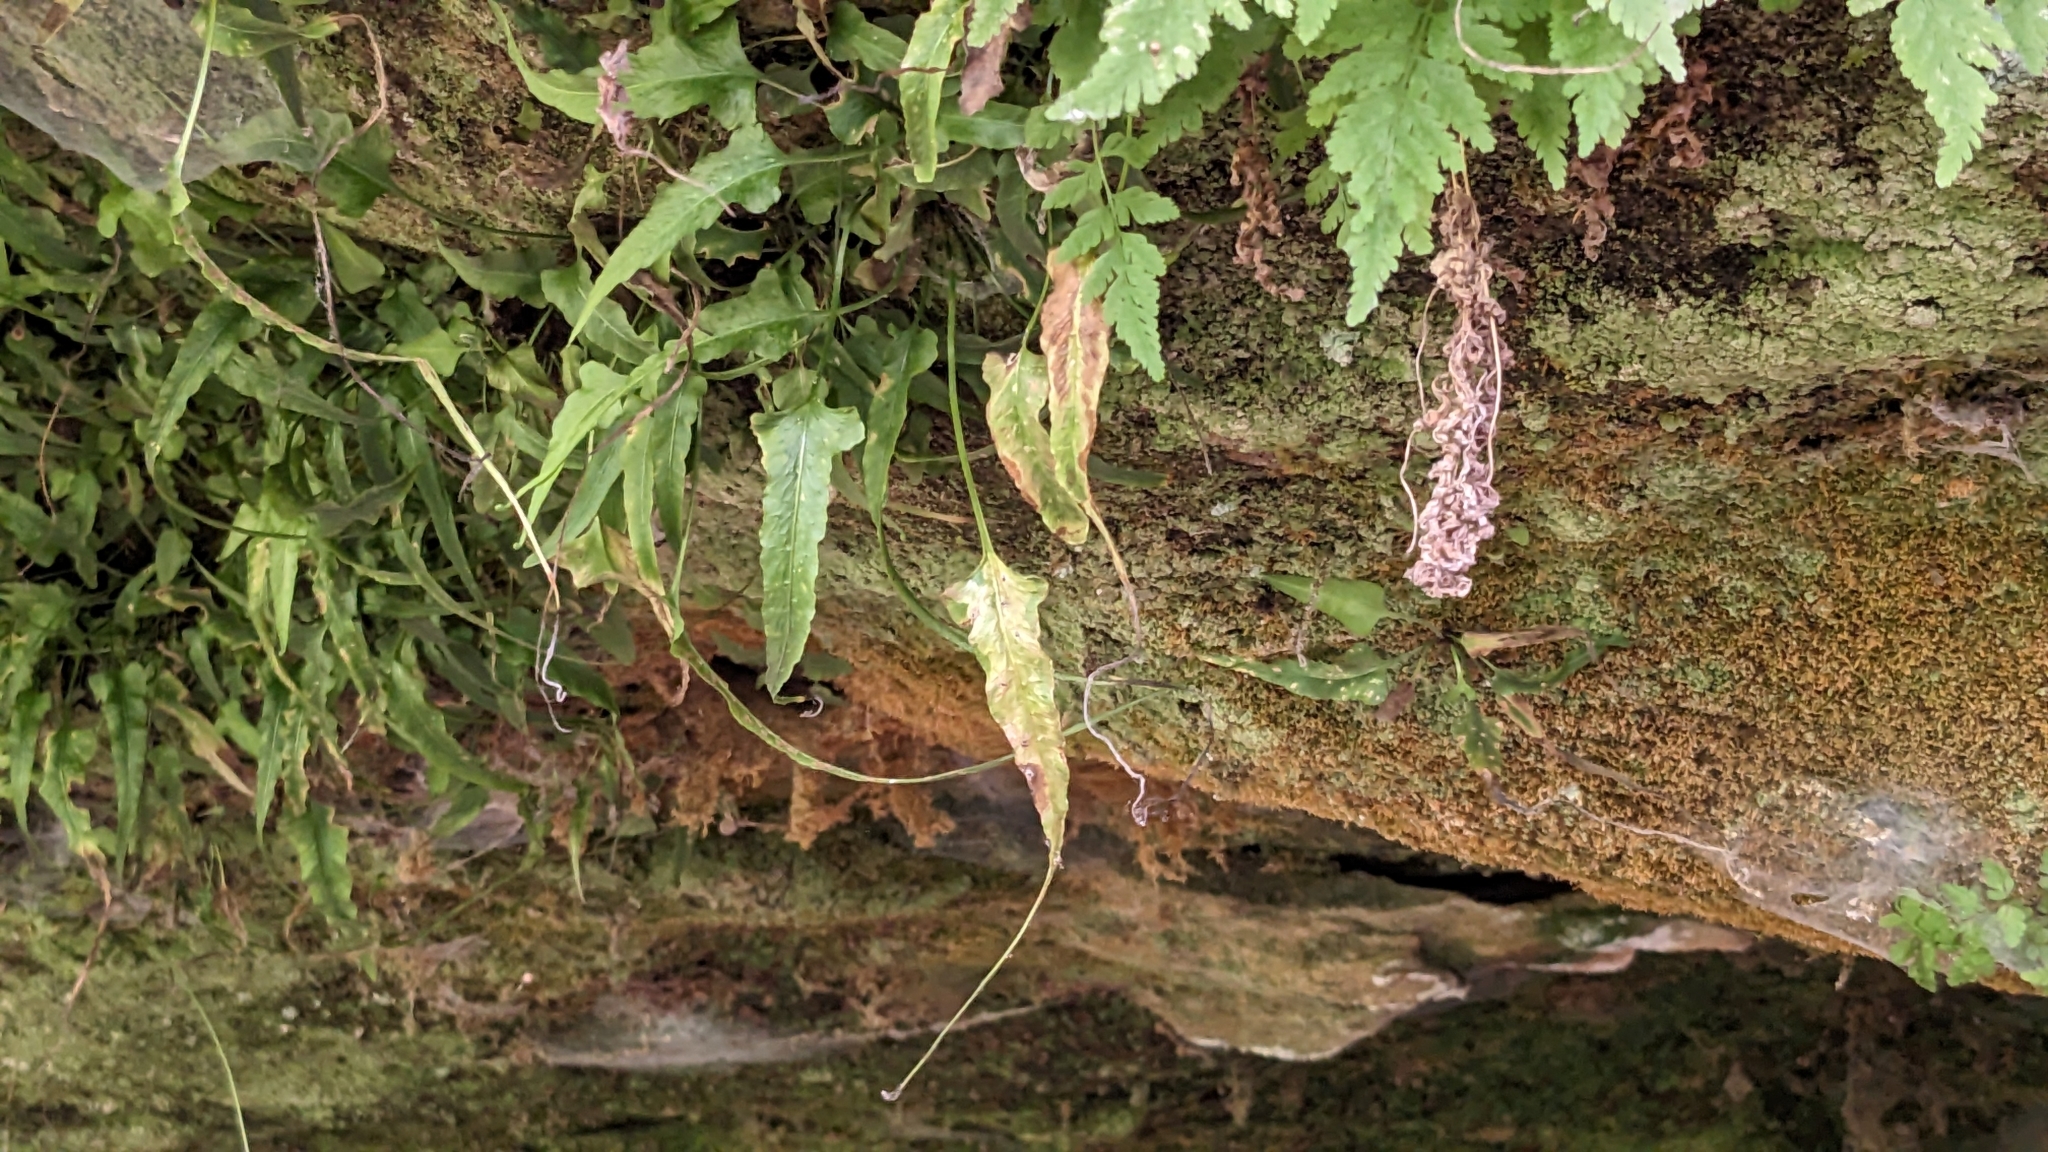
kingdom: Plantae
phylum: Tracheophyta
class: Polypodiopsida
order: Polypodiales
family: Aspleniaceae
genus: Asplenium
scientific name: Asplenium rhizophyllum
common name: Walking fern
